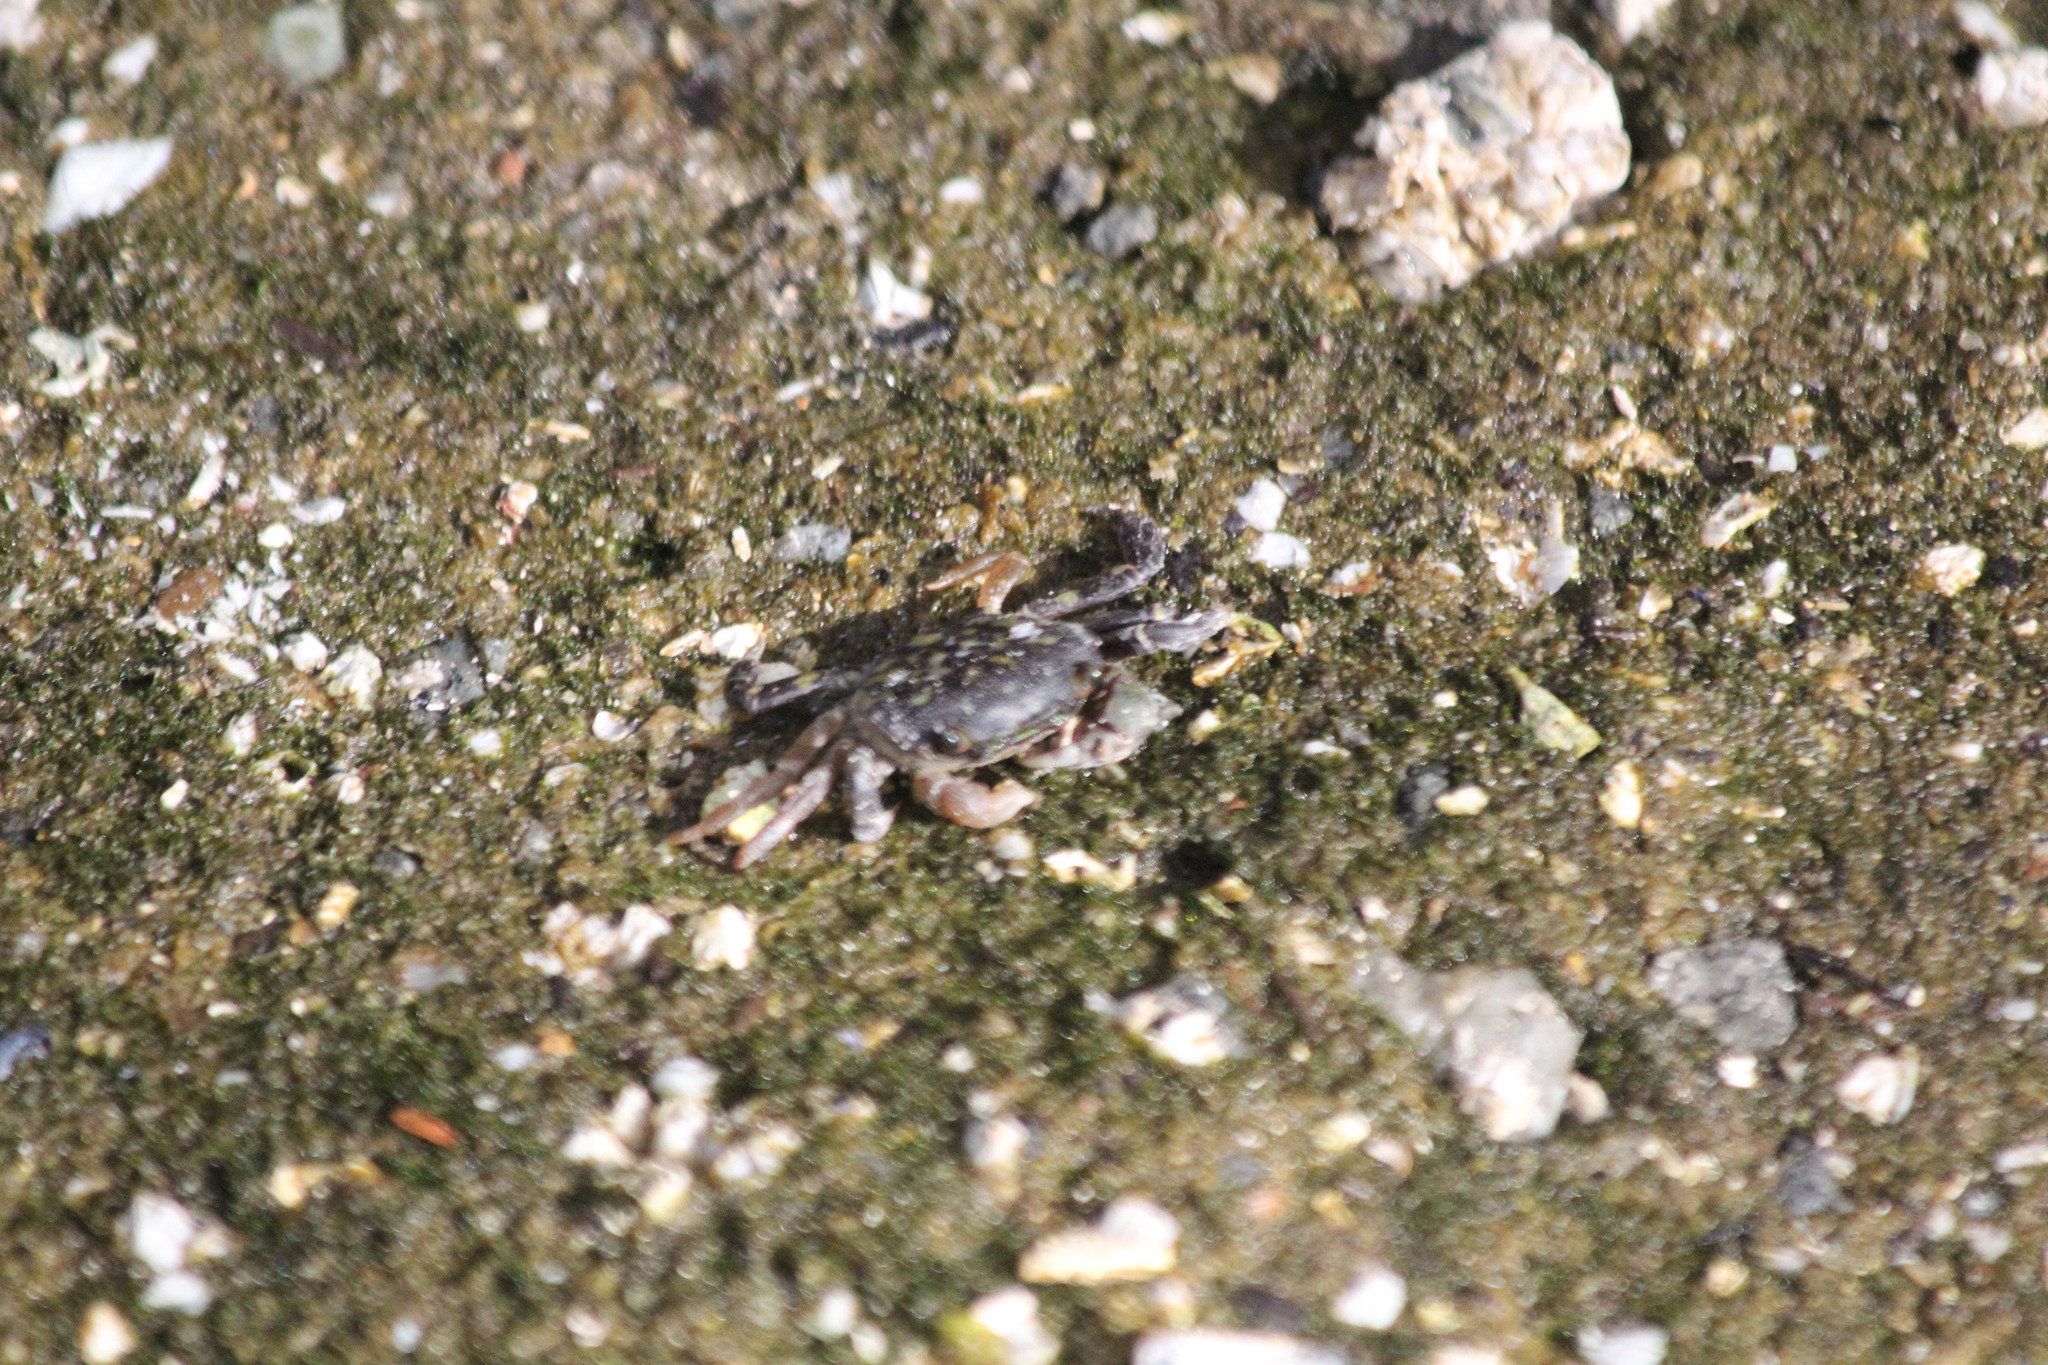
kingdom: Animalia
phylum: Arthropoda
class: Malacostraca
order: Decapoda
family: Varunidae
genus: Hemigrapsus
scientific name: Hemigrapsus nudus
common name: Purple shore crab
